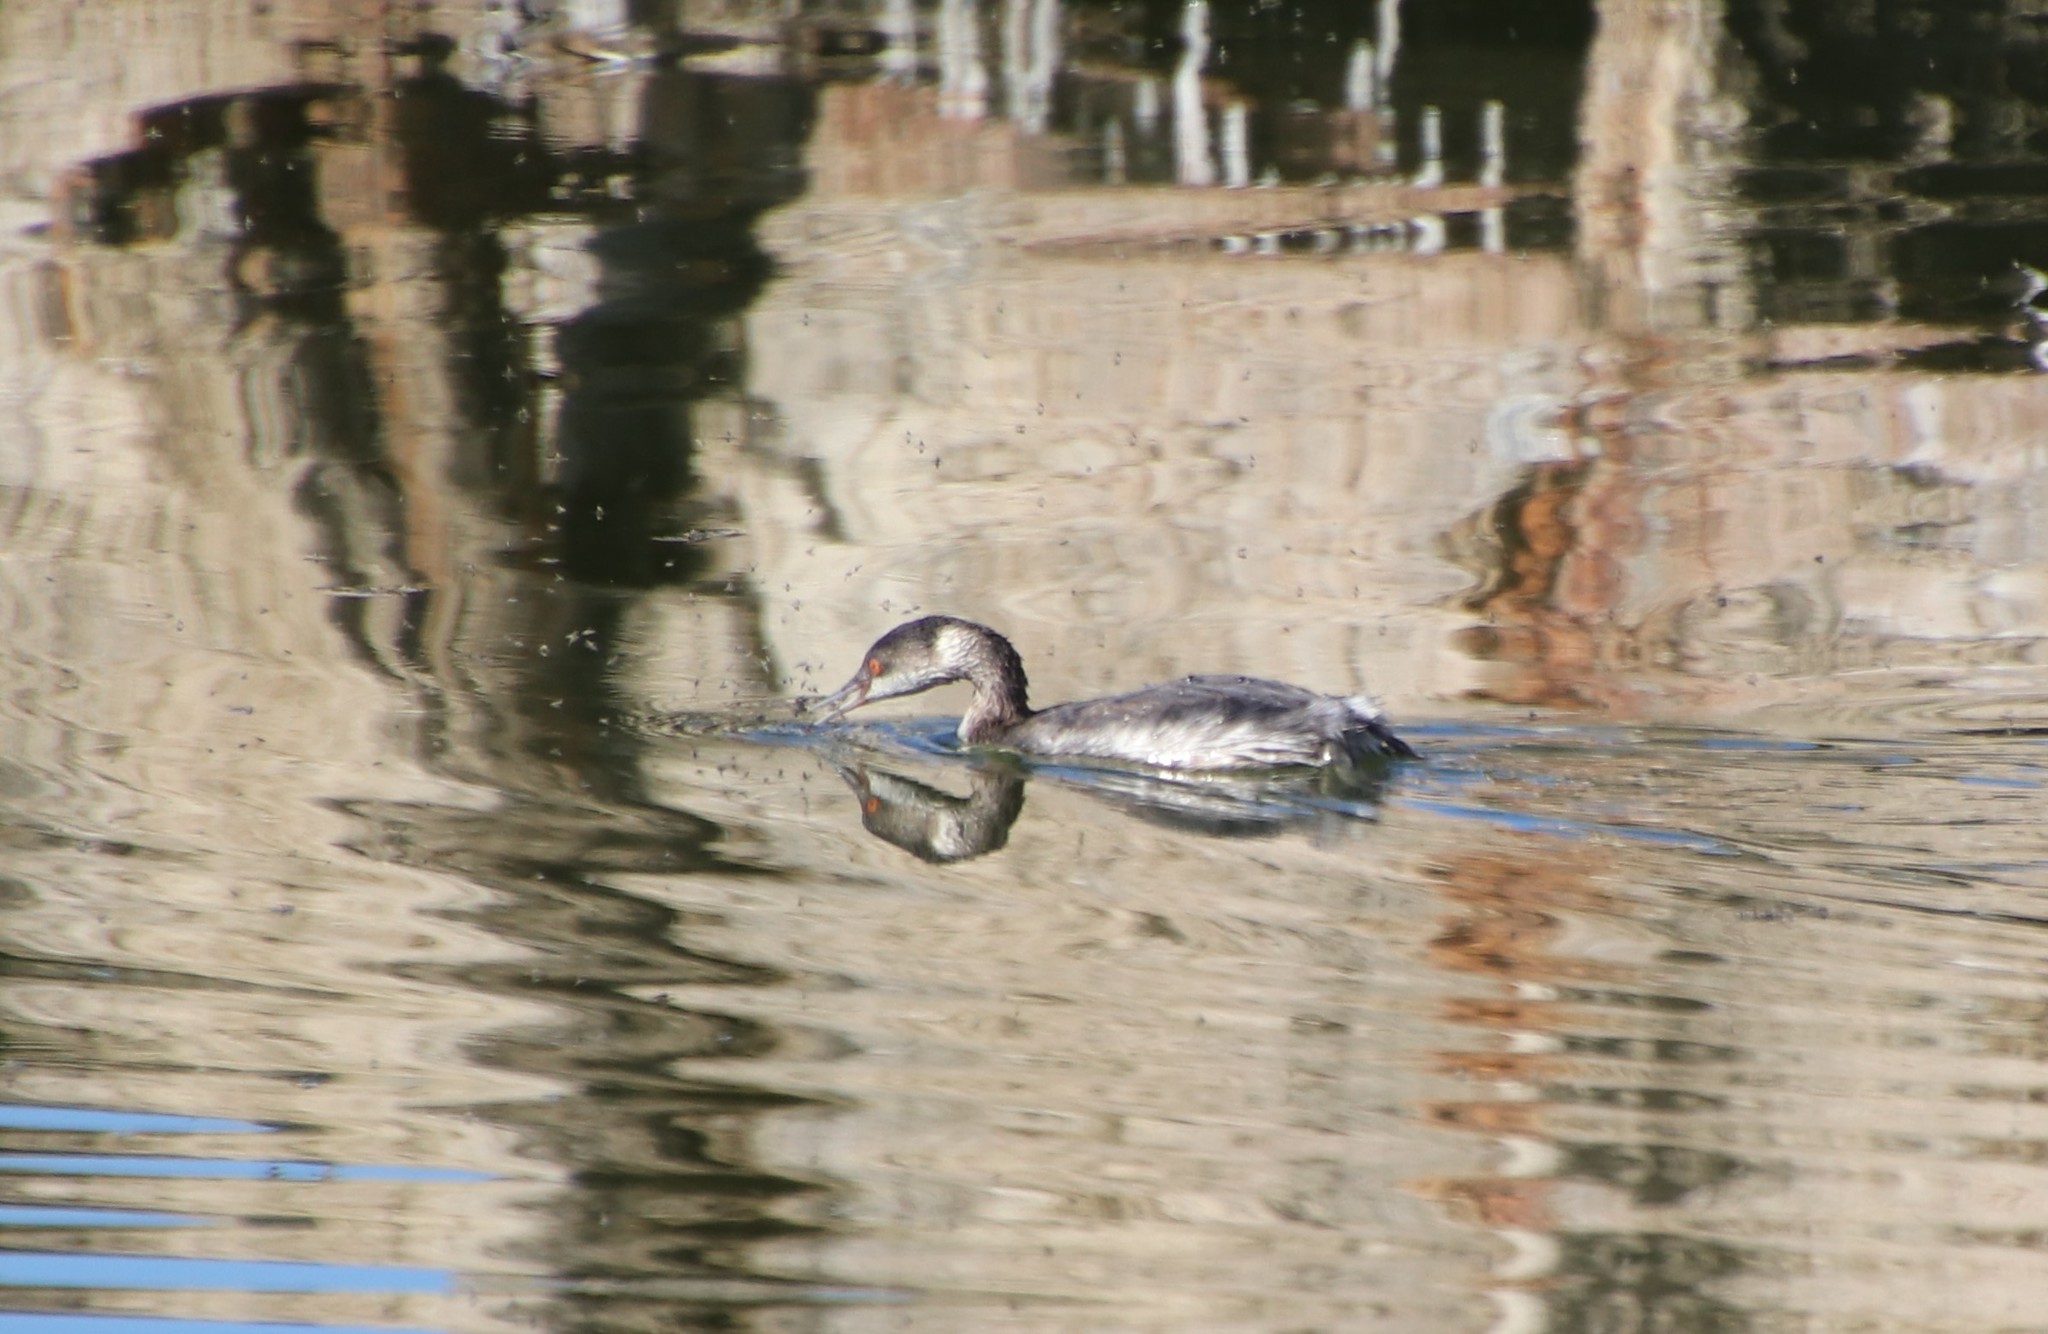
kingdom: Animalia
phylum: Chordata
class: Aves
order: Podicipediformes
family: Podicipedidae
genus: Podiceps
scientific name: Podiceps nigricollis
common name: Black-necked grebe
